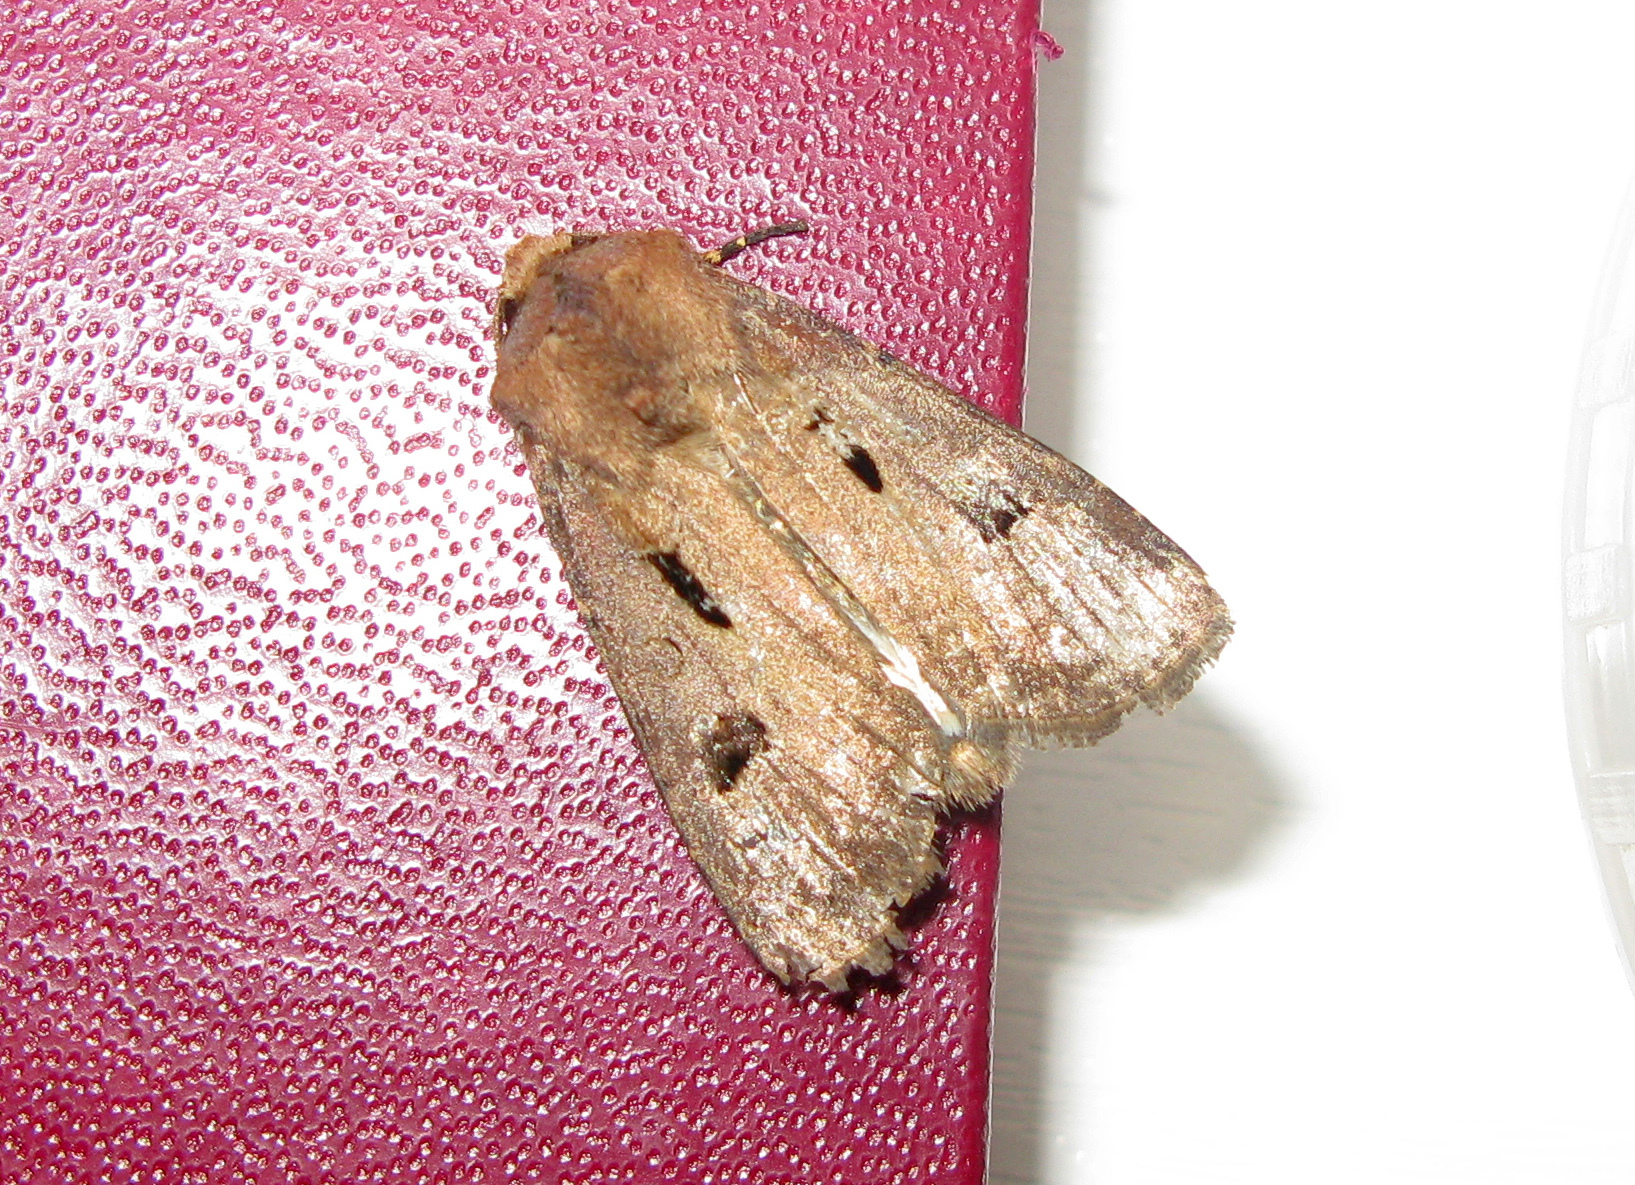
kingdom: Animalia
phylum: Arthropoda
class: Insecta
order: Lepidoptera
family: Noctuidae
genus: Agrotis
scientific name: Agrotis exclamationis
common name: Heart and dart
